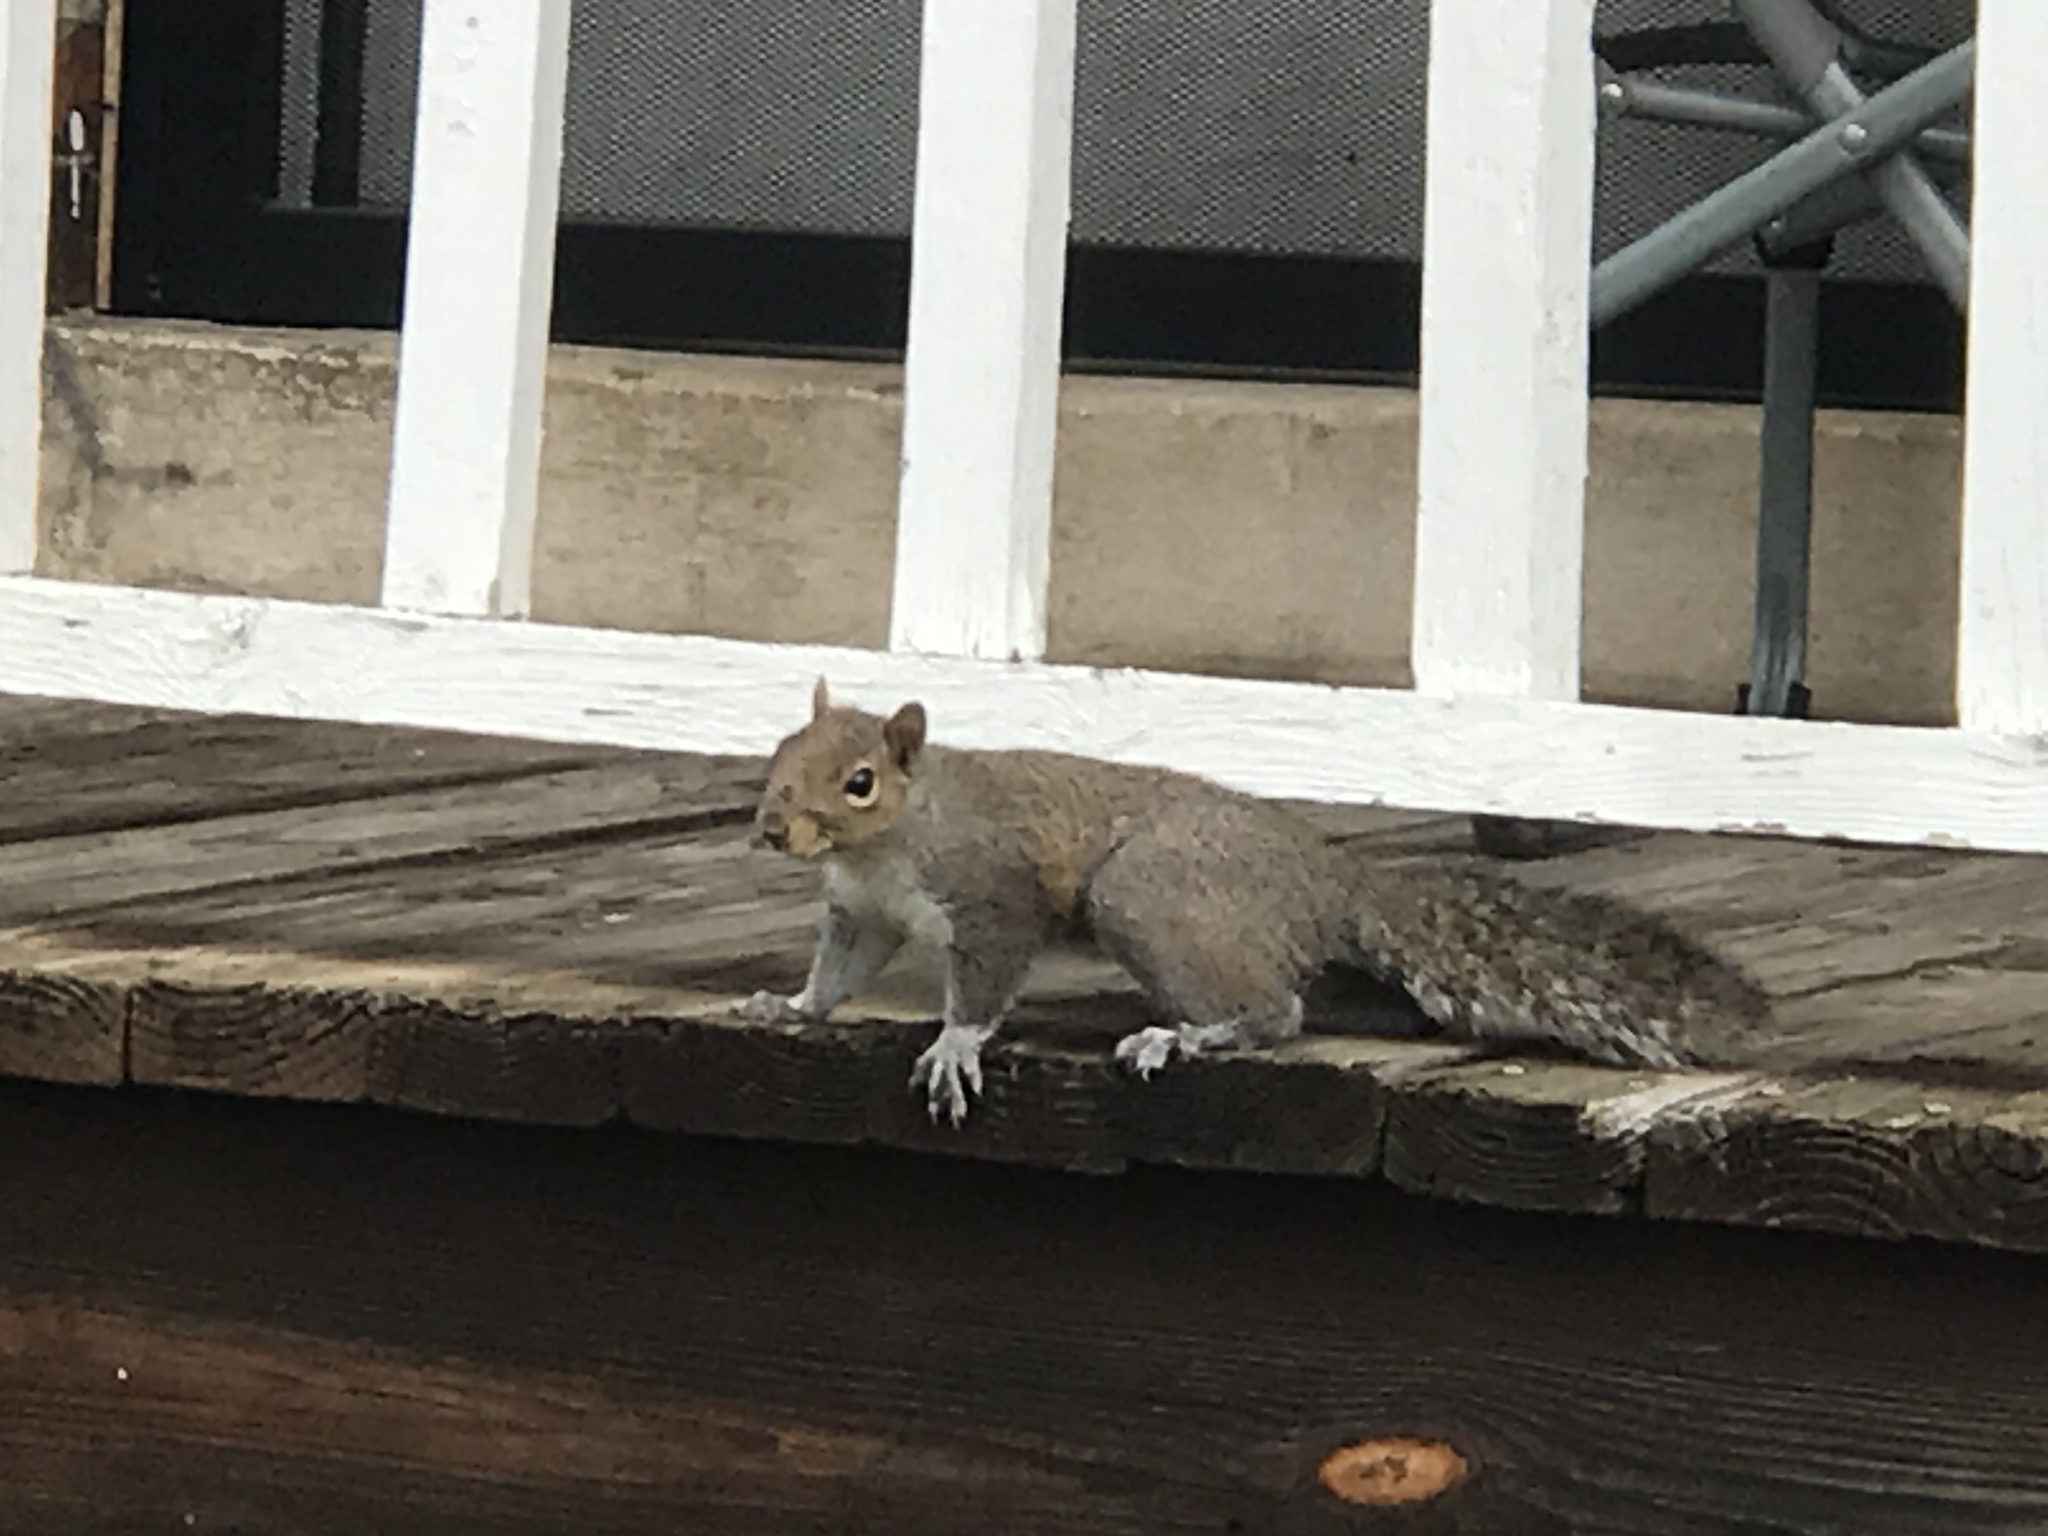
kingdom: Animalia
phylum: Chordata
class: Mammalia
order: Rodentia
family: Sciuridae
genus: Sciurus
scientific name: Sciurus carolinensis
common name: Eastern gray squirrel
